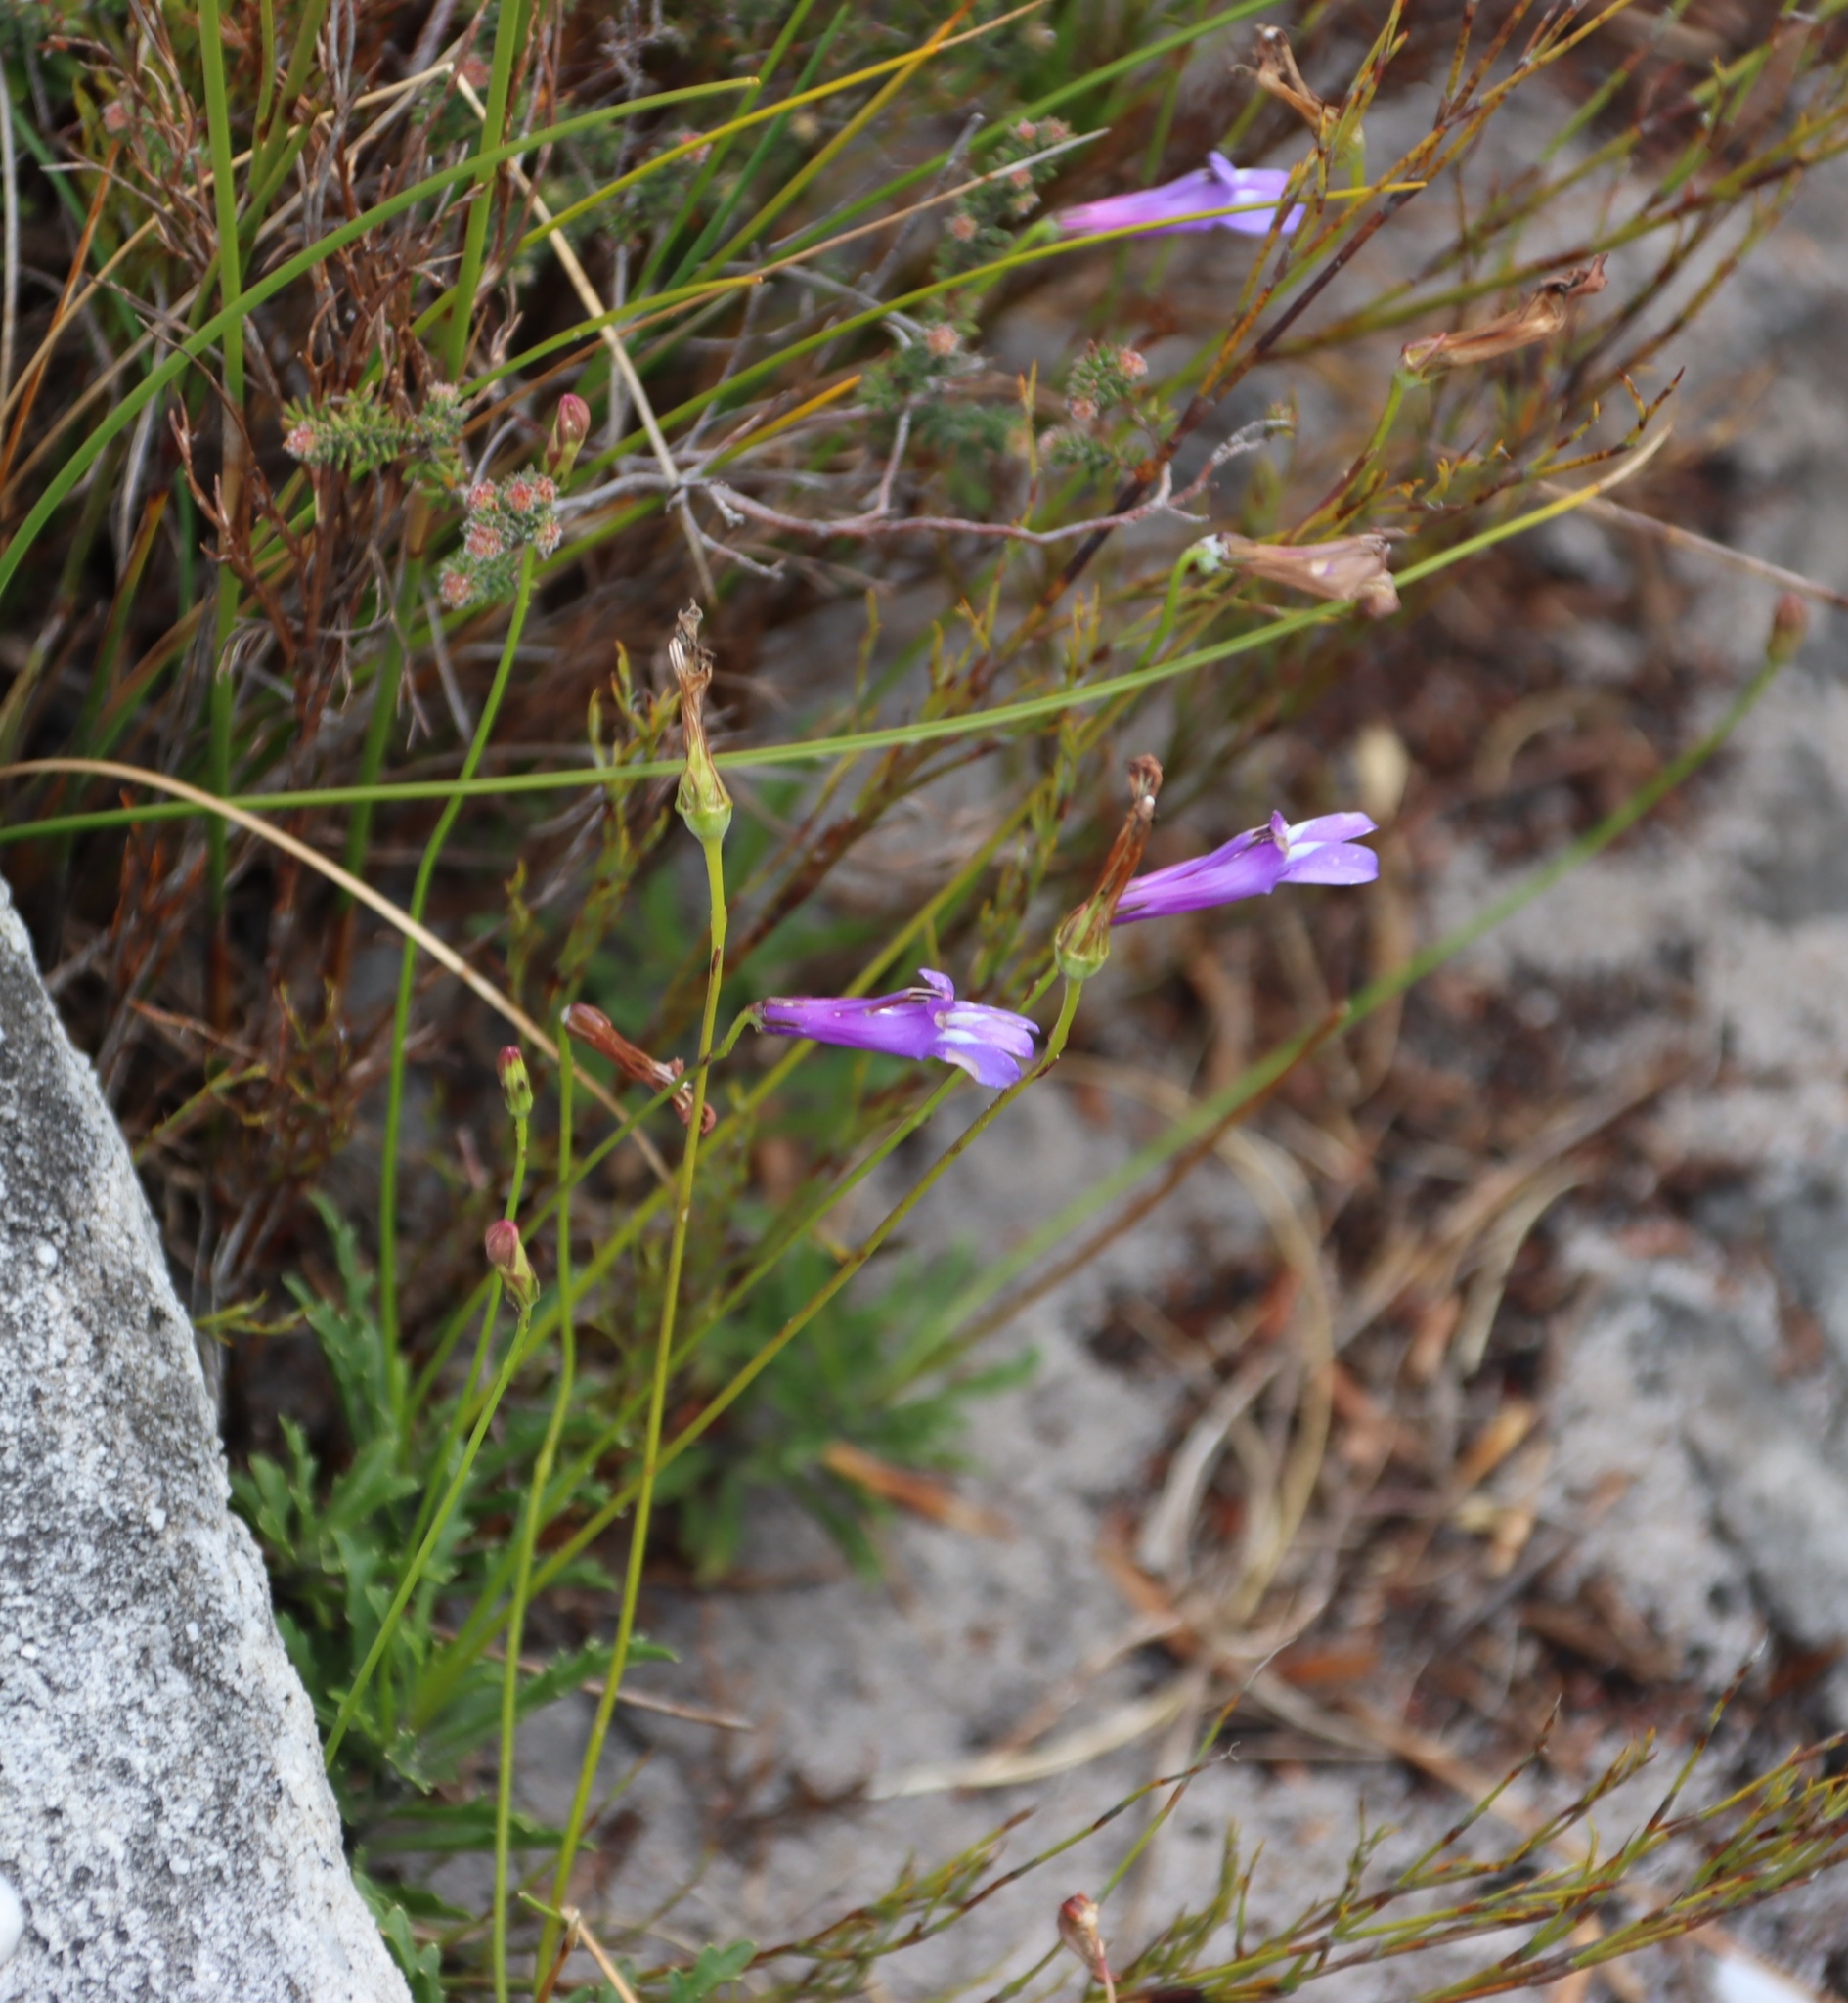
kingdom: Plantae
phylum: Tracheophyta
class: Magnoliopsida
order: Asterales
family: Campanulaceae
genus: Lobelia
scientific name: Lobelia coronopifolia
